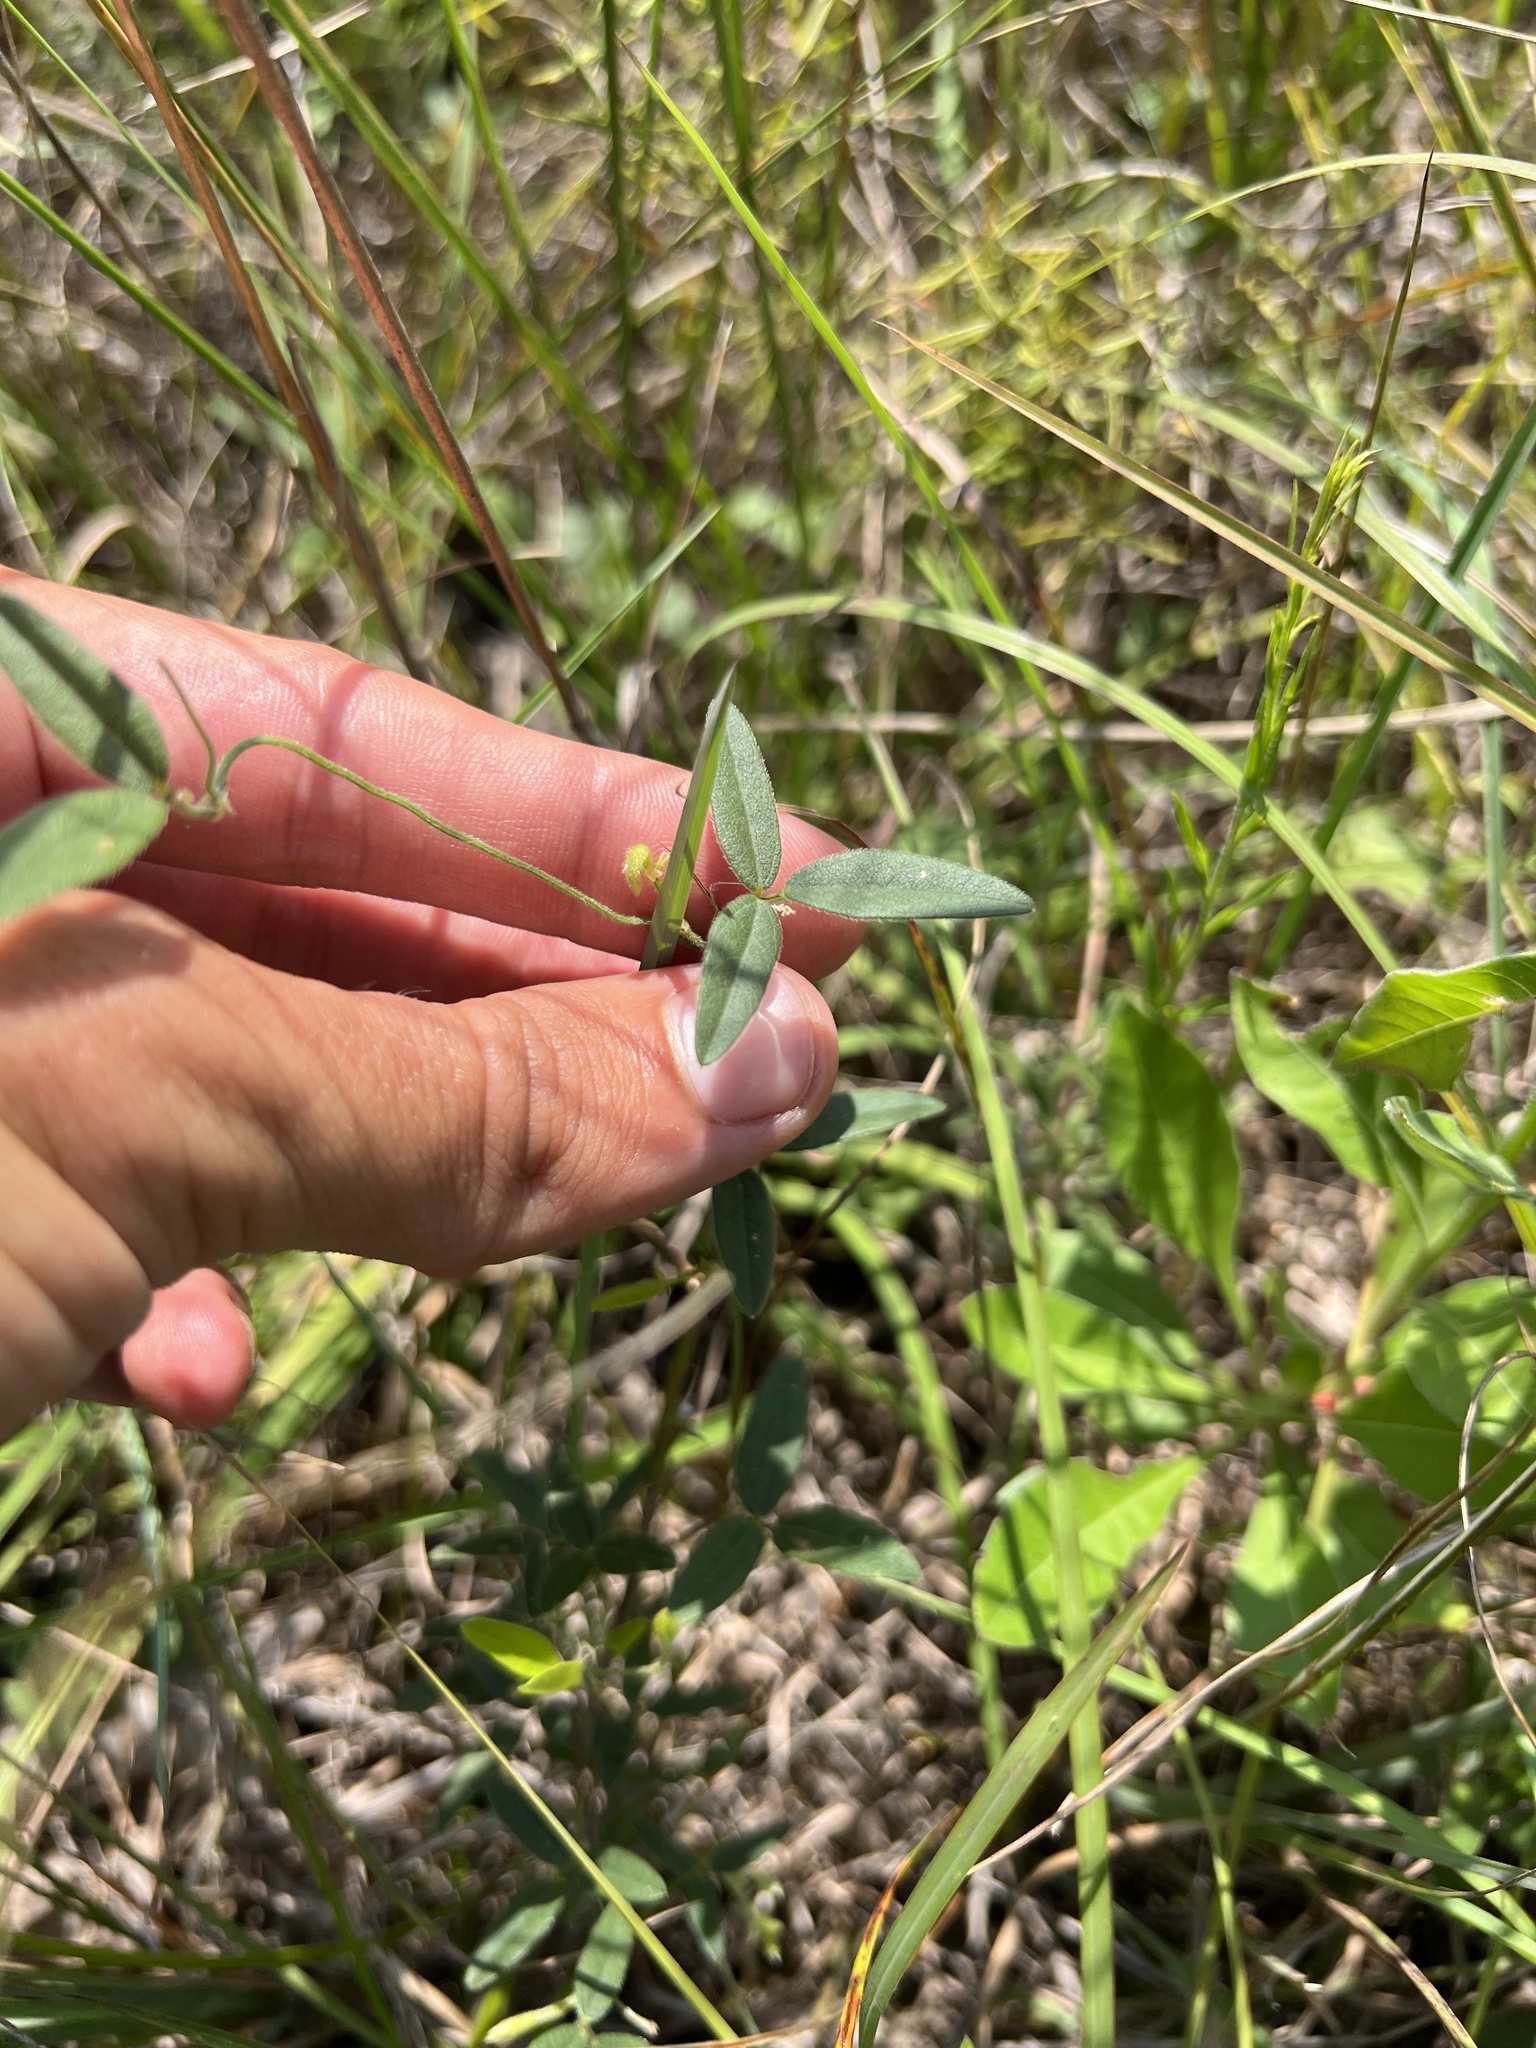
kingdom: Plantae
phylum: Tracheophyta
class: Magnoliopsida
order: Fabales
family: Fabaceae
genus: Strophostyles
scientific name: Strophostyles leiosperma
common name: Smooth-seed wild bean
